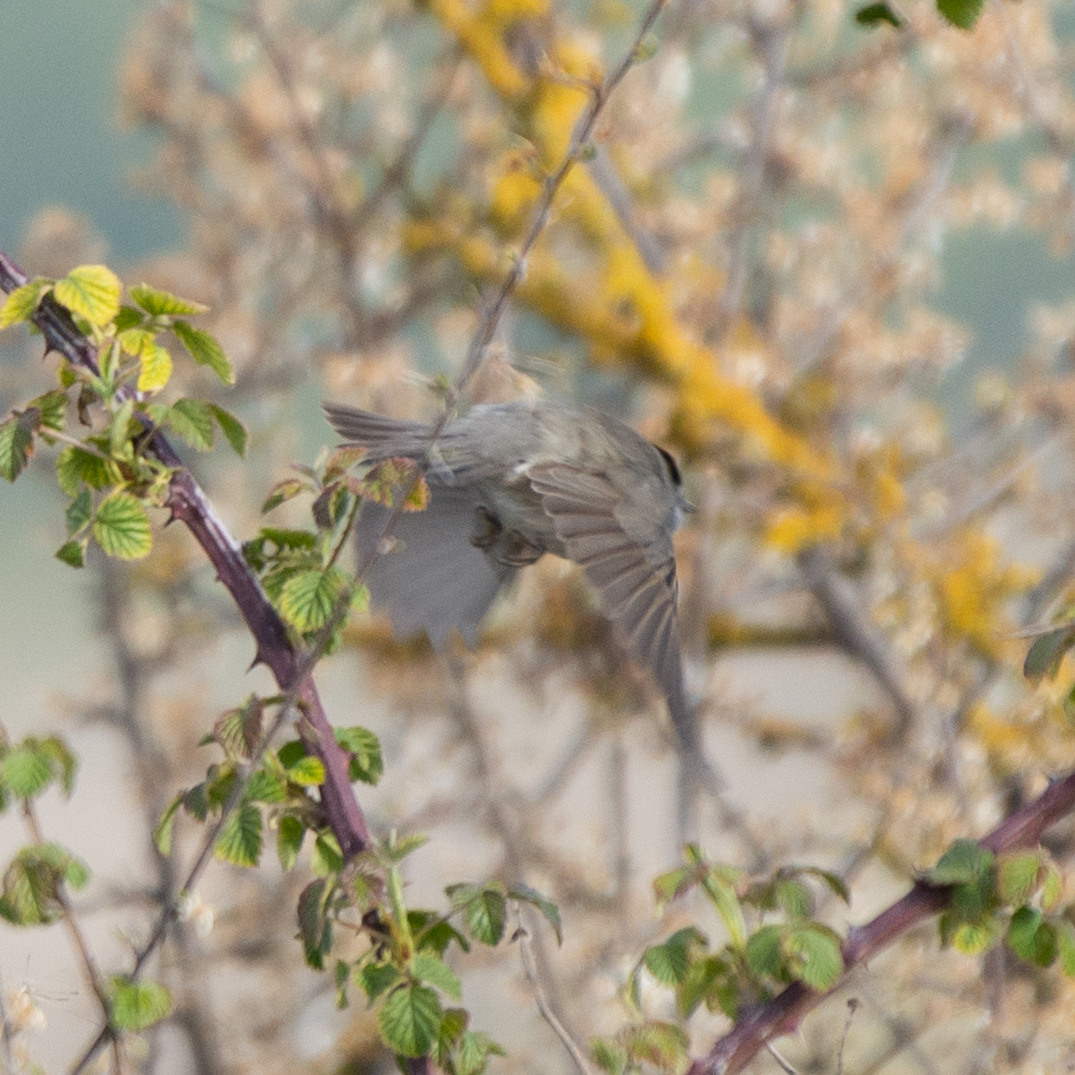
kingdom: Animalia
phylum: Chordata
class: Aves
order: Passeriformes
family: Sylviidae
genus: Sylvia
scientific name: Sylvia atricapilla
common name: Eurasian blackcap
